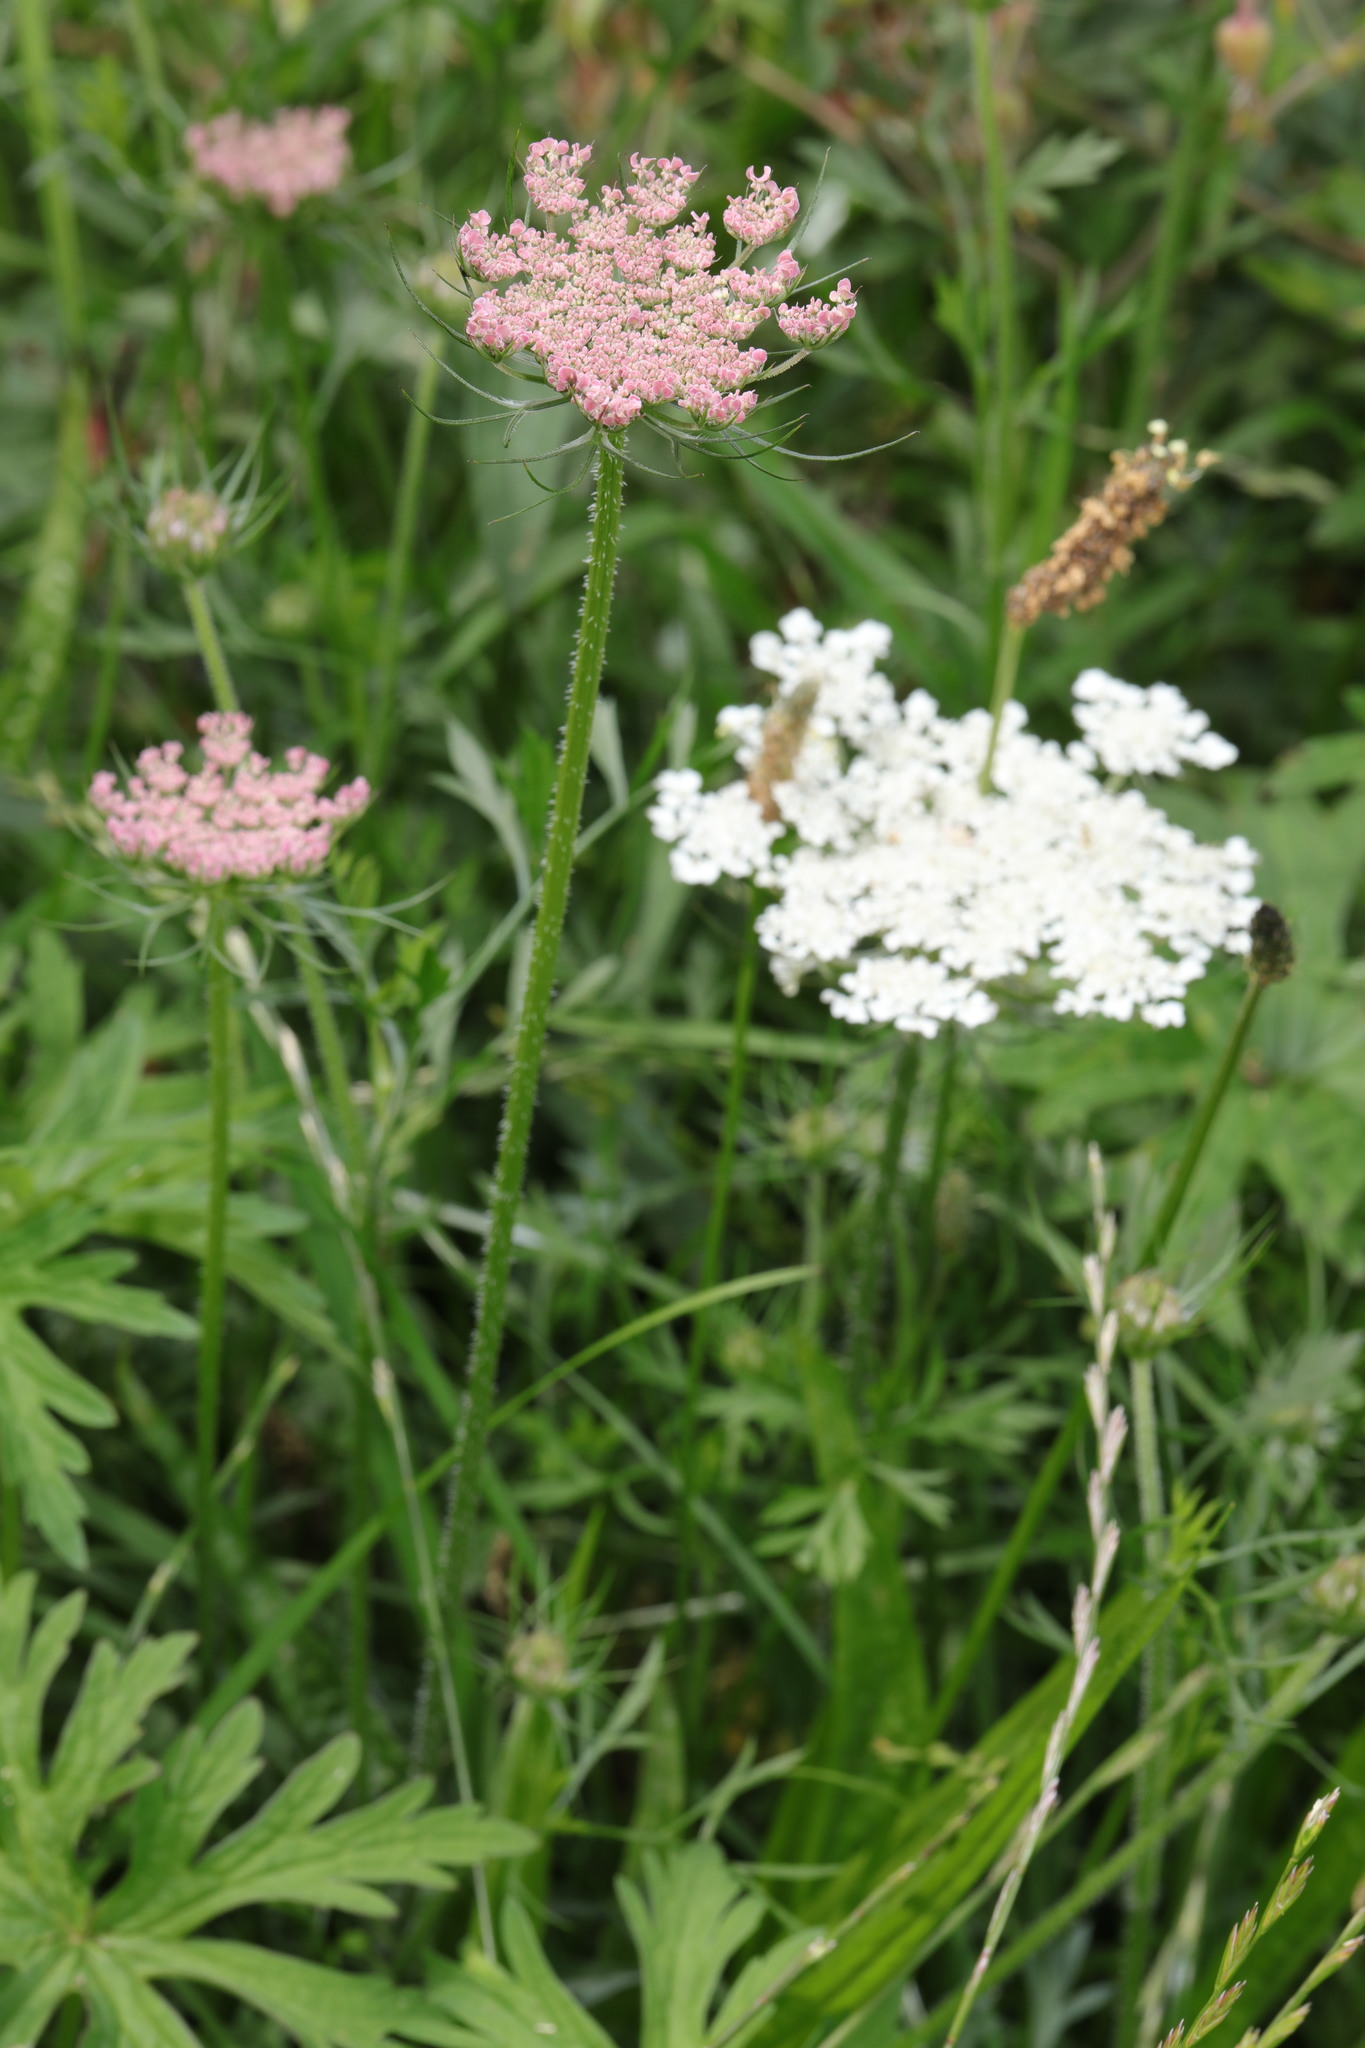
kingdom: Plantae
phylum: Tracheophyta
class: Magnoliopsida
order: Apiales
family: Apiaceae
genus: Daucus
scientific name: Daucus carota
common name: Wild carrot
